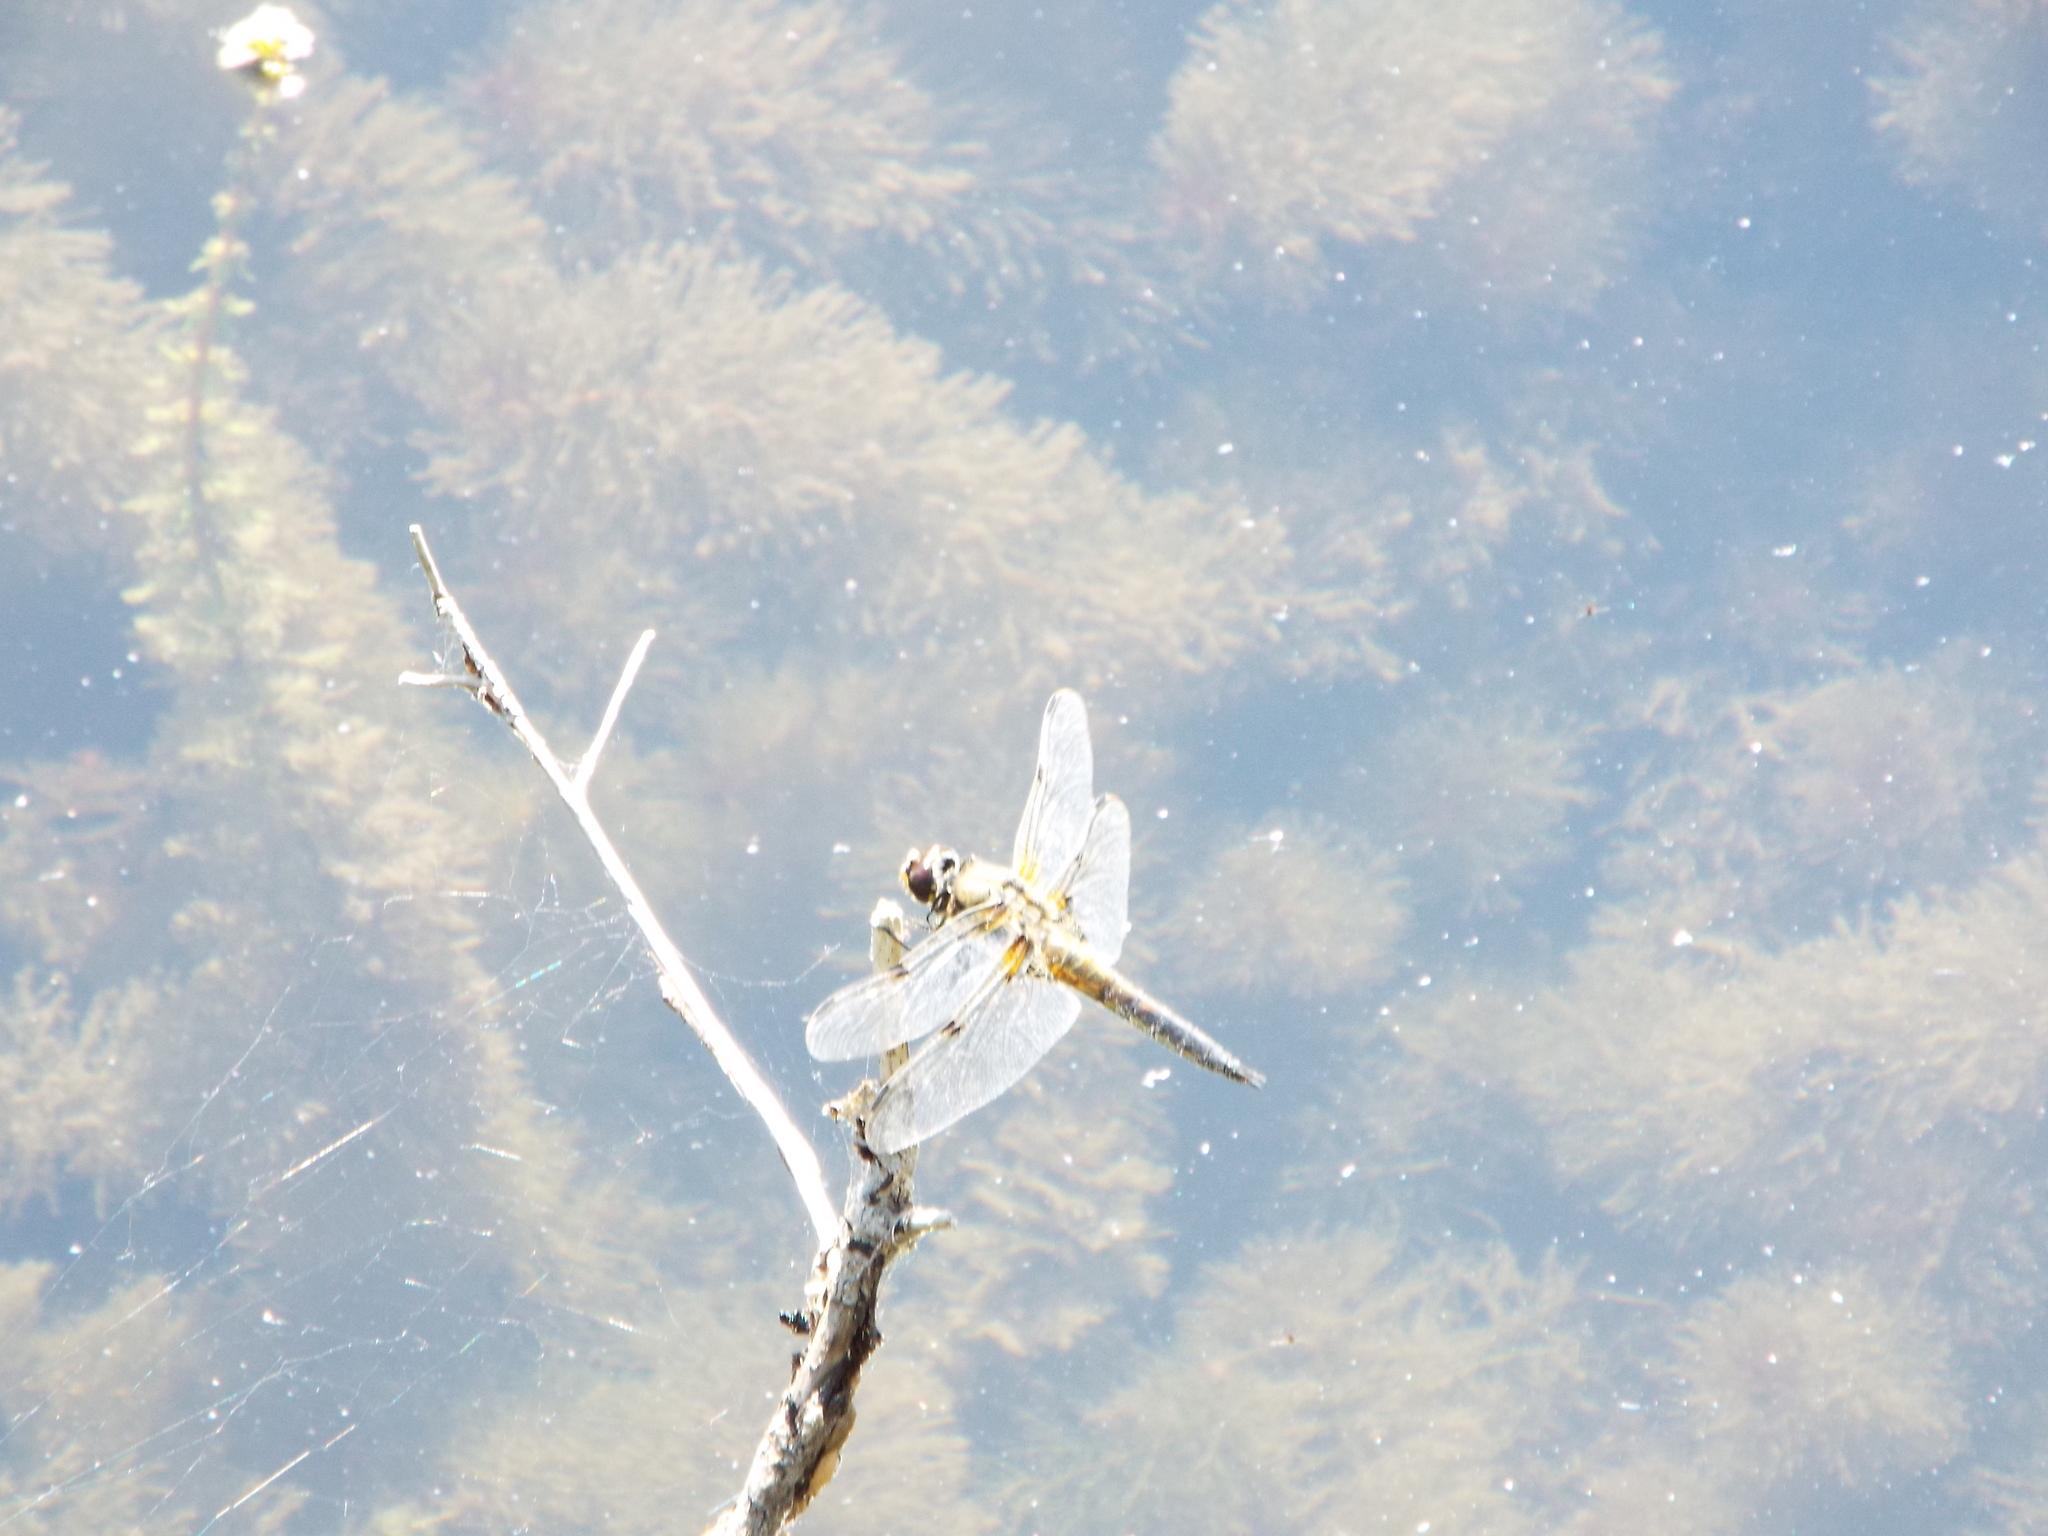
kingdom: Animalia
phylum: Arthropoda
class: Insecta
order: Odonata
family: Libellulidae
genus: Libellula
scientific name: Libellula quadrimaculata
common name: Four-spotted chaser
